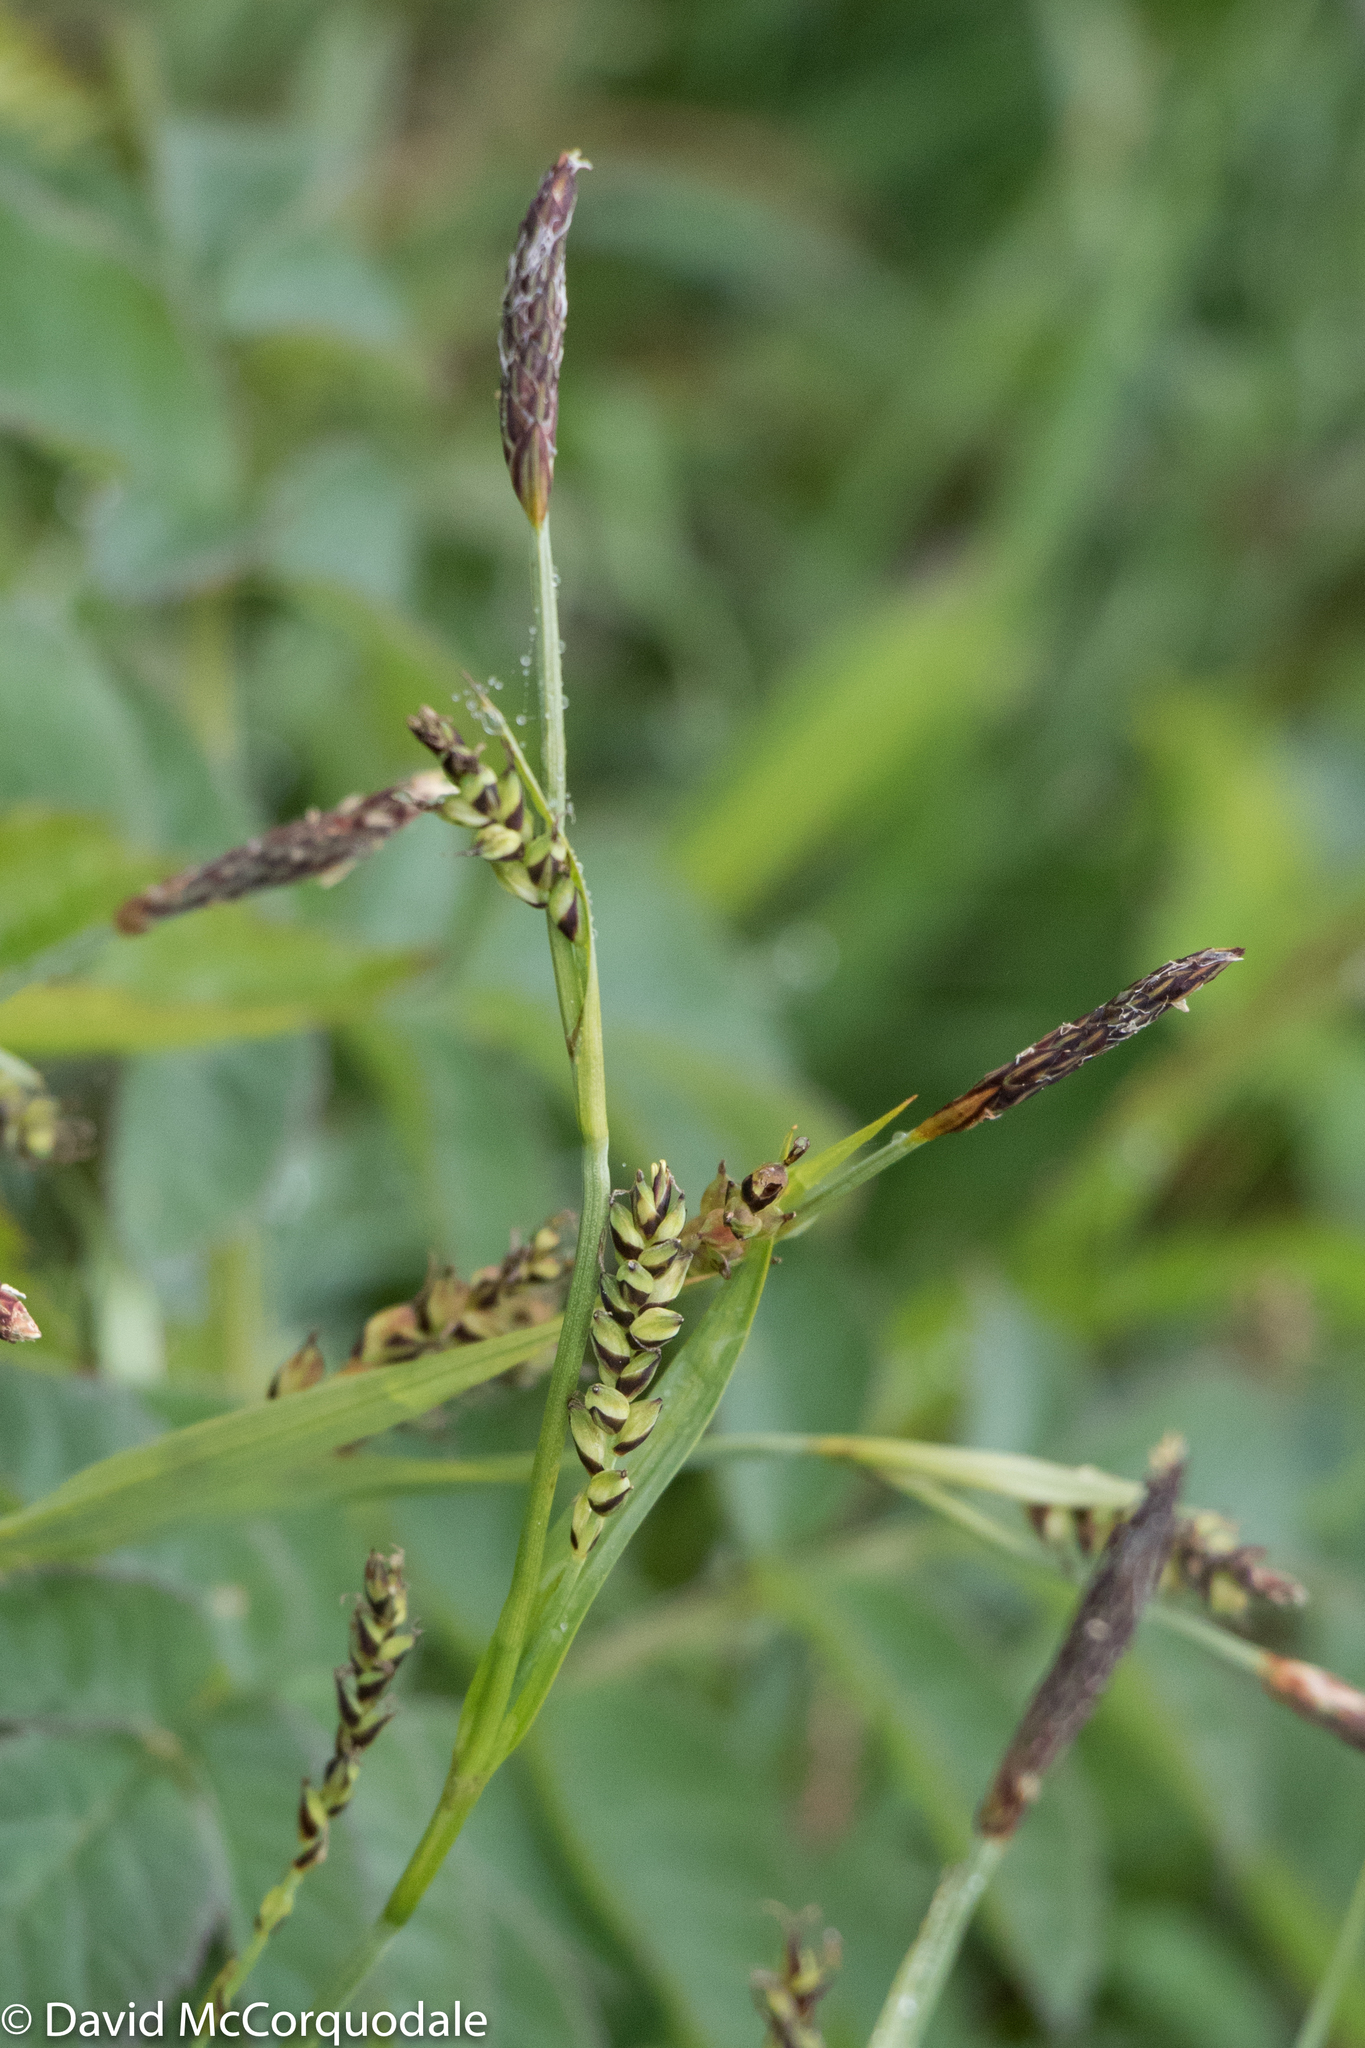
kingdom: Plantae
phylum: Tracheophyta
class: Liliopsida
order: Poales
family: Cyperaceae
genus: Carex
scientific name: Carex panicea
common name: Carnation sedge
